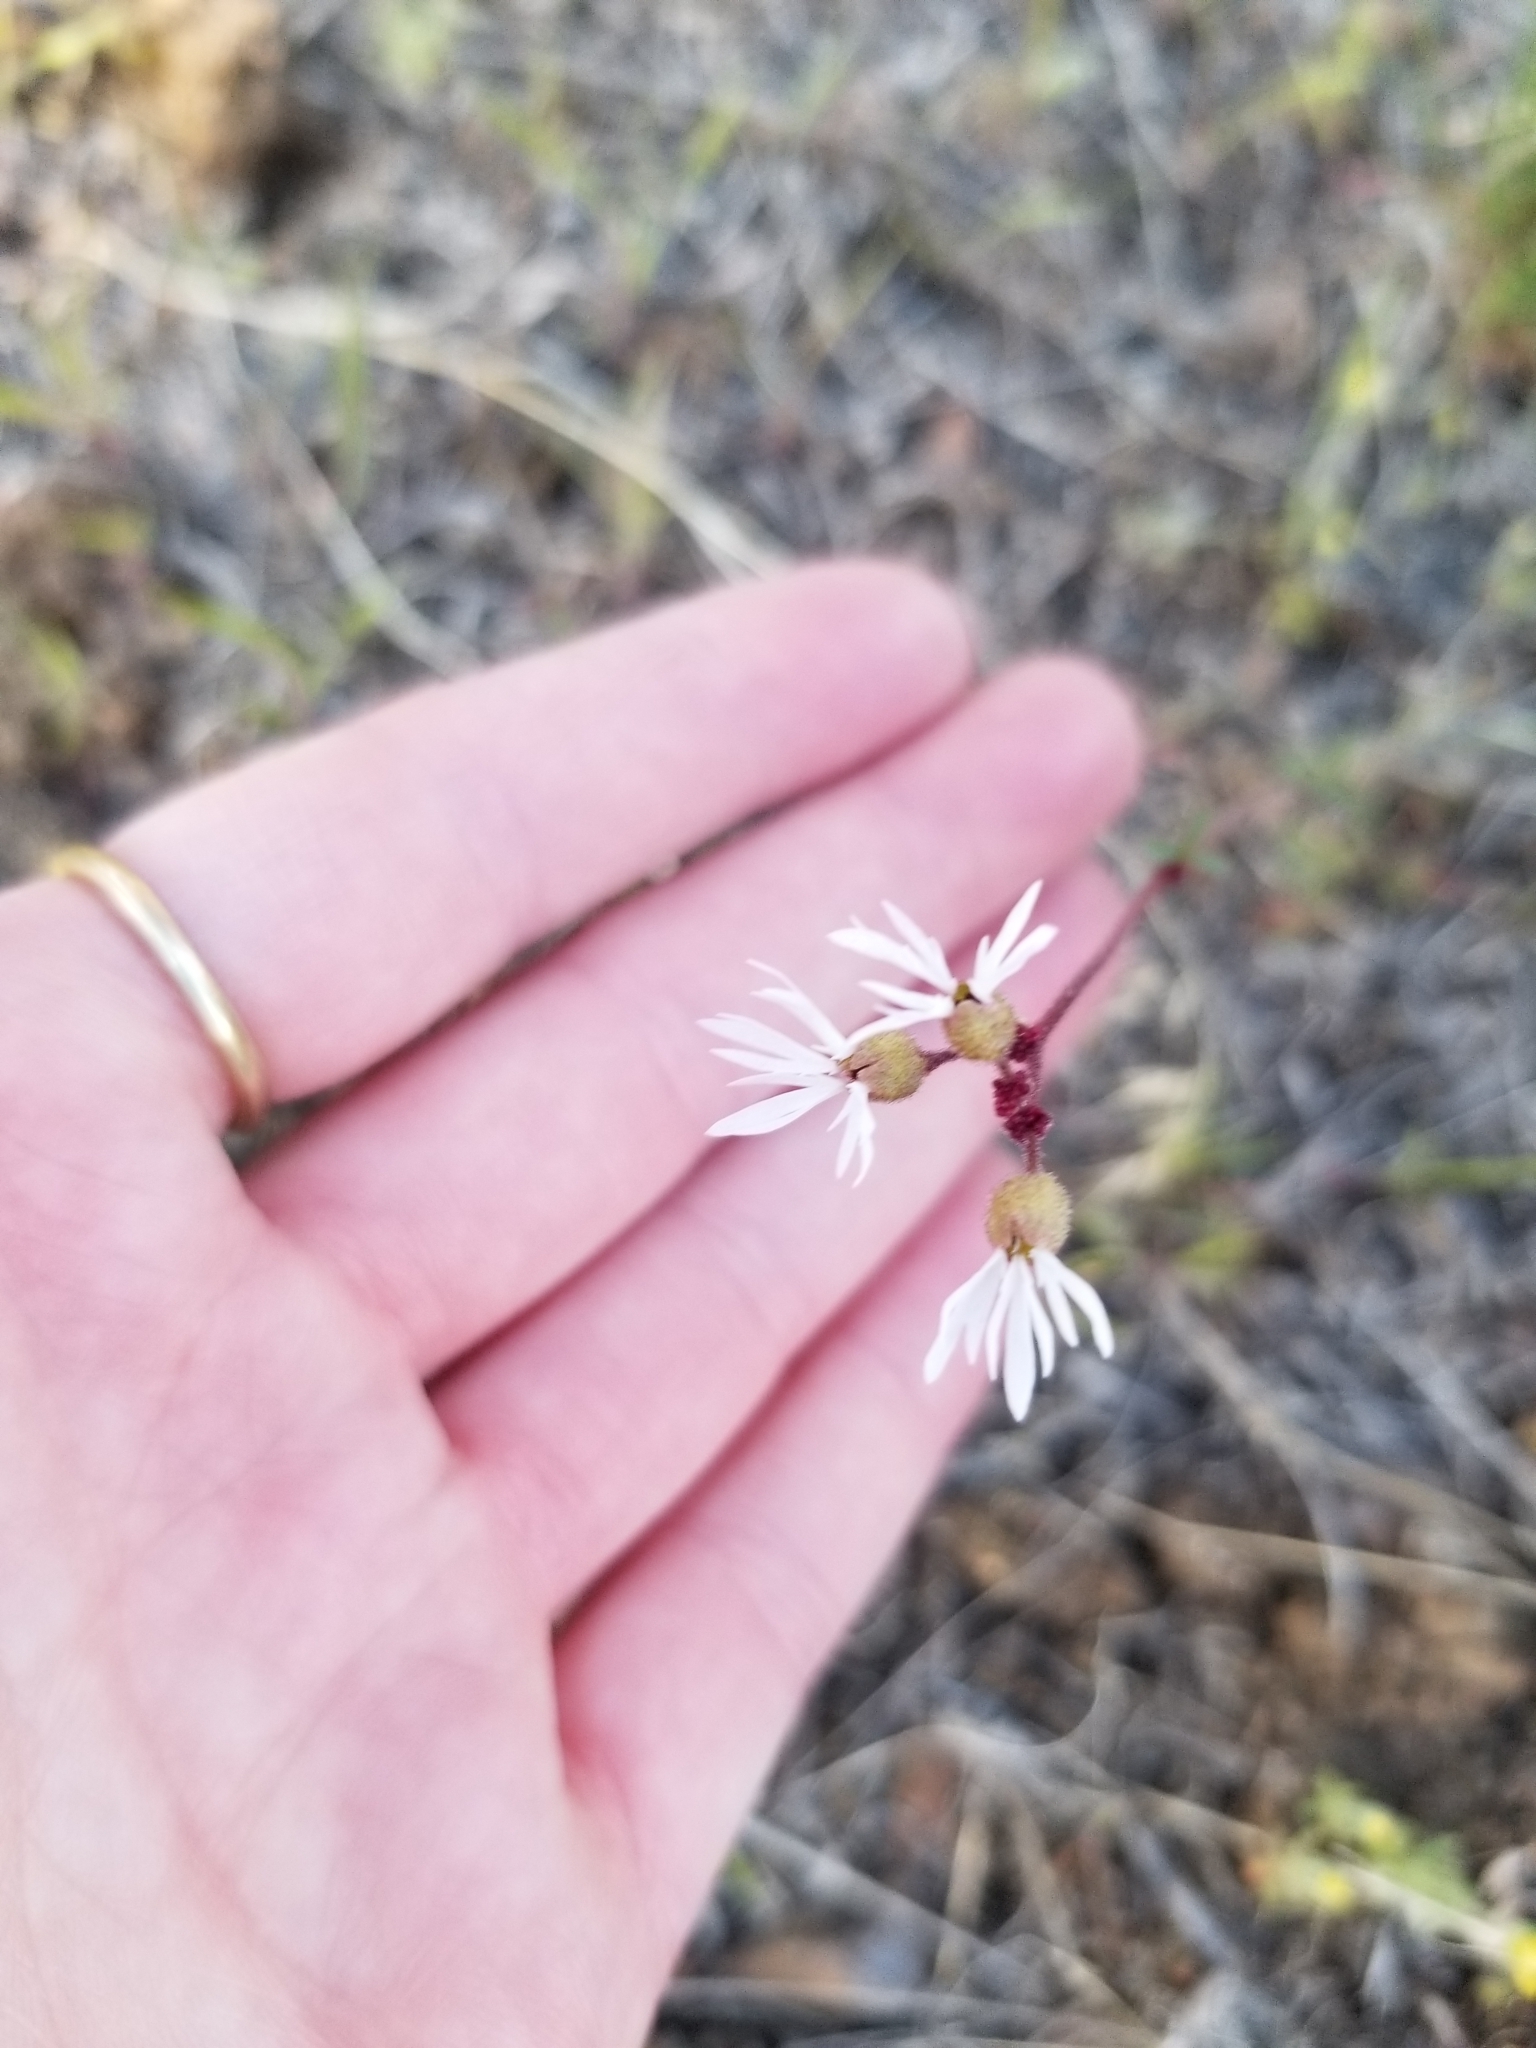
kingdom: Plantae
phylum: Tracheophyta
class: Magnoliopsida
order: Saxifragales
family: Saxifragaceae
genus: Lithophragma
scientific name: Lithophragma glabrum
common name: Bulbous prairie-star
